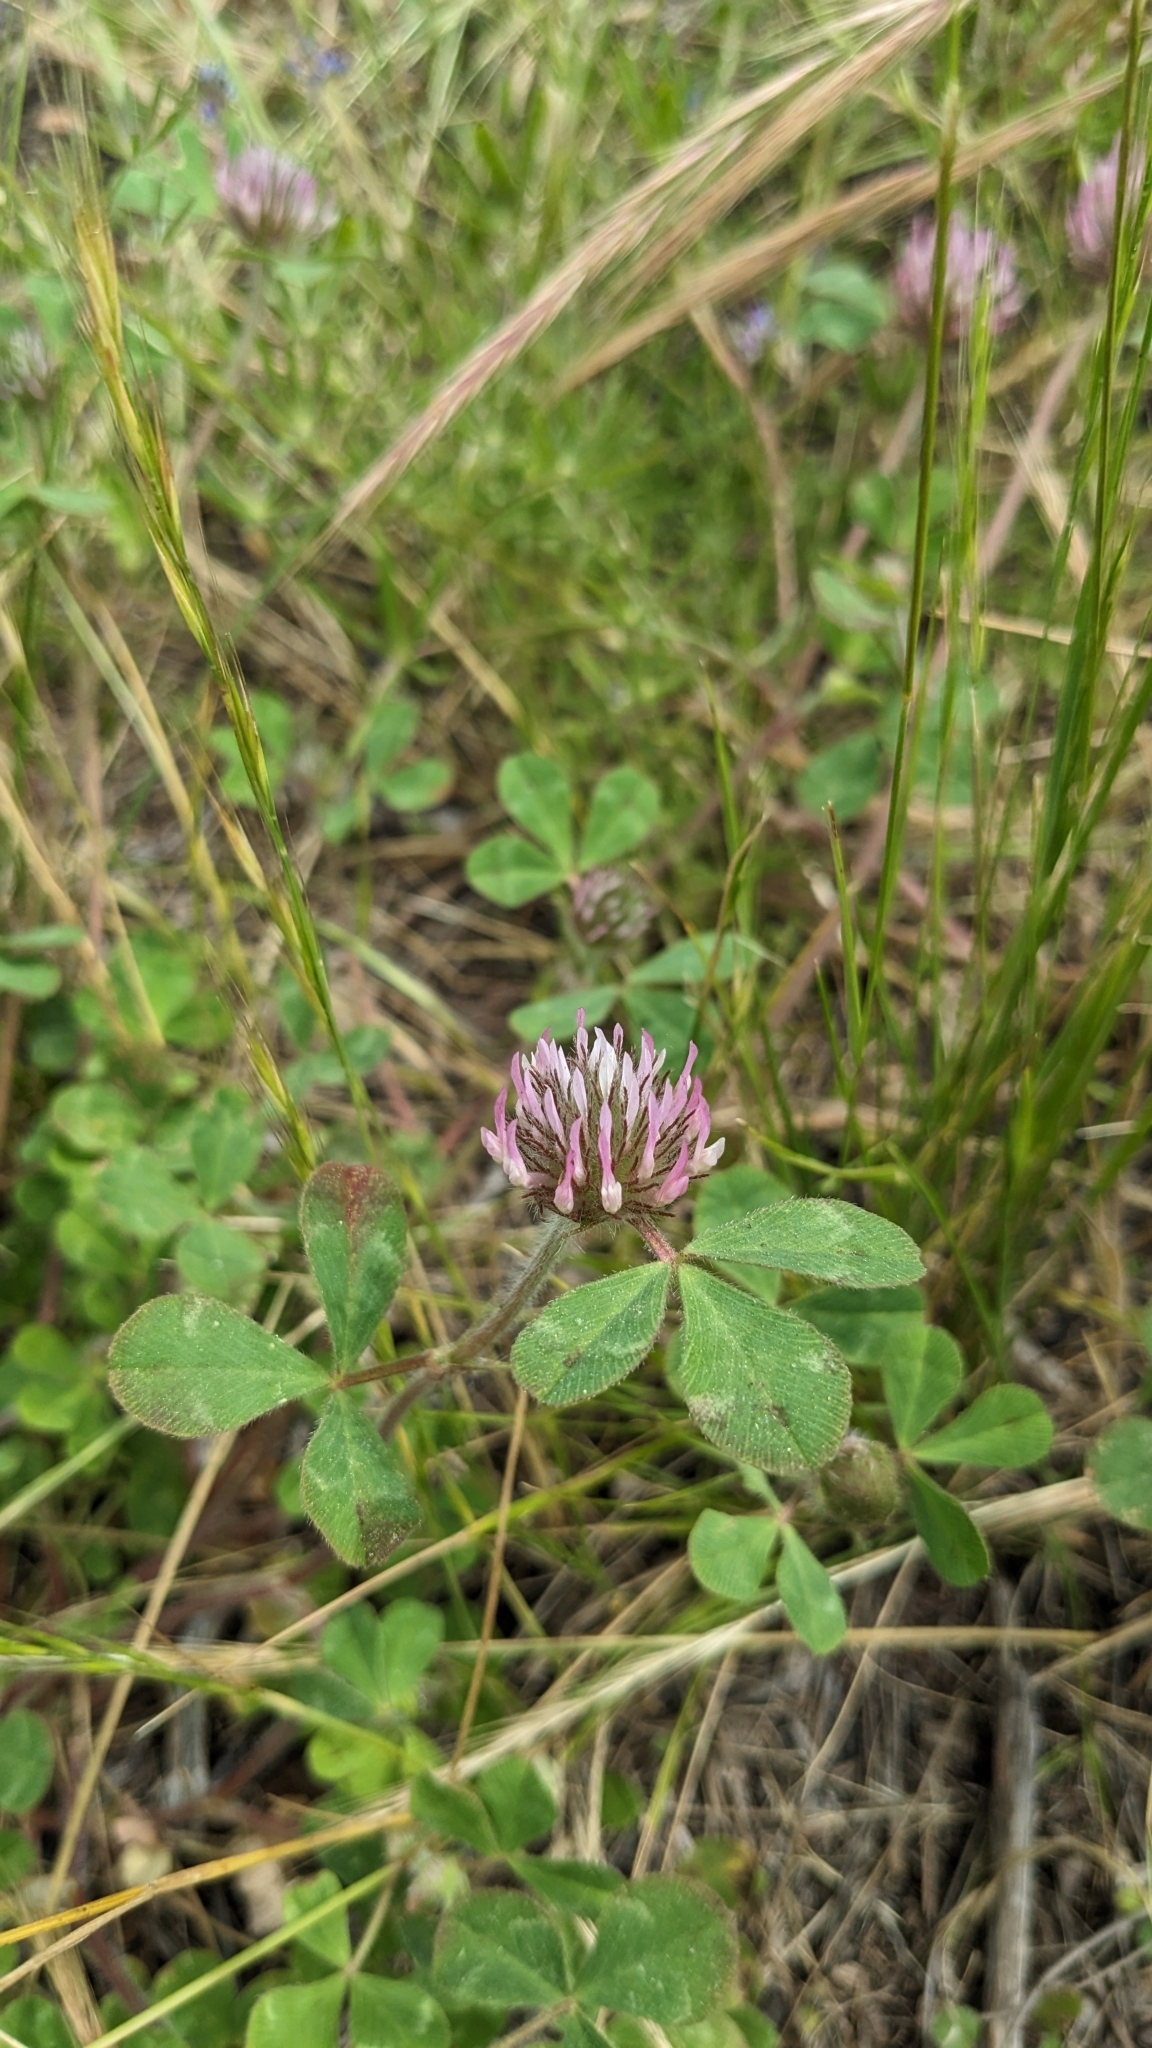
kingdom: Plantae
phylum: Tracheophyta
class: Magnoliopsida
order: Fabales
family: Fabaceae
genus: Trifolium
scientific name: Trifolium hirtum
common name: Rose clover
